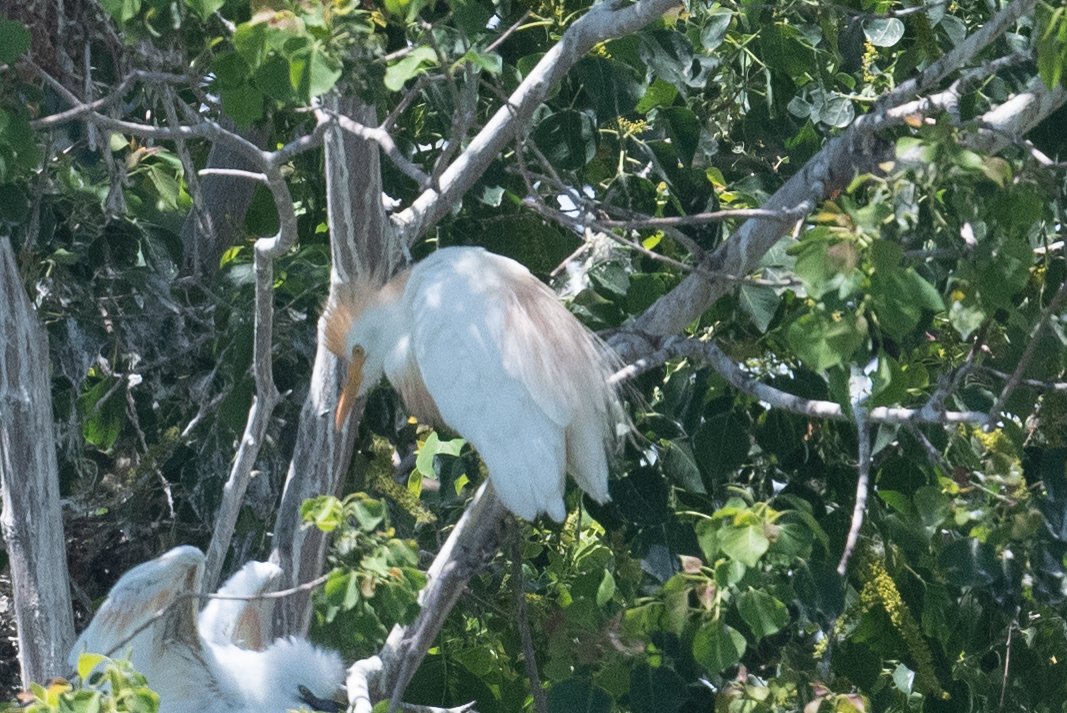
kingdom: Animalia
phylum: Chordata
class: Aves
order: Pelecaniformes
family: Ardeidae
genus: Bubulcus
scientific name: Bubulcus ibis
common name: Cattle egret
